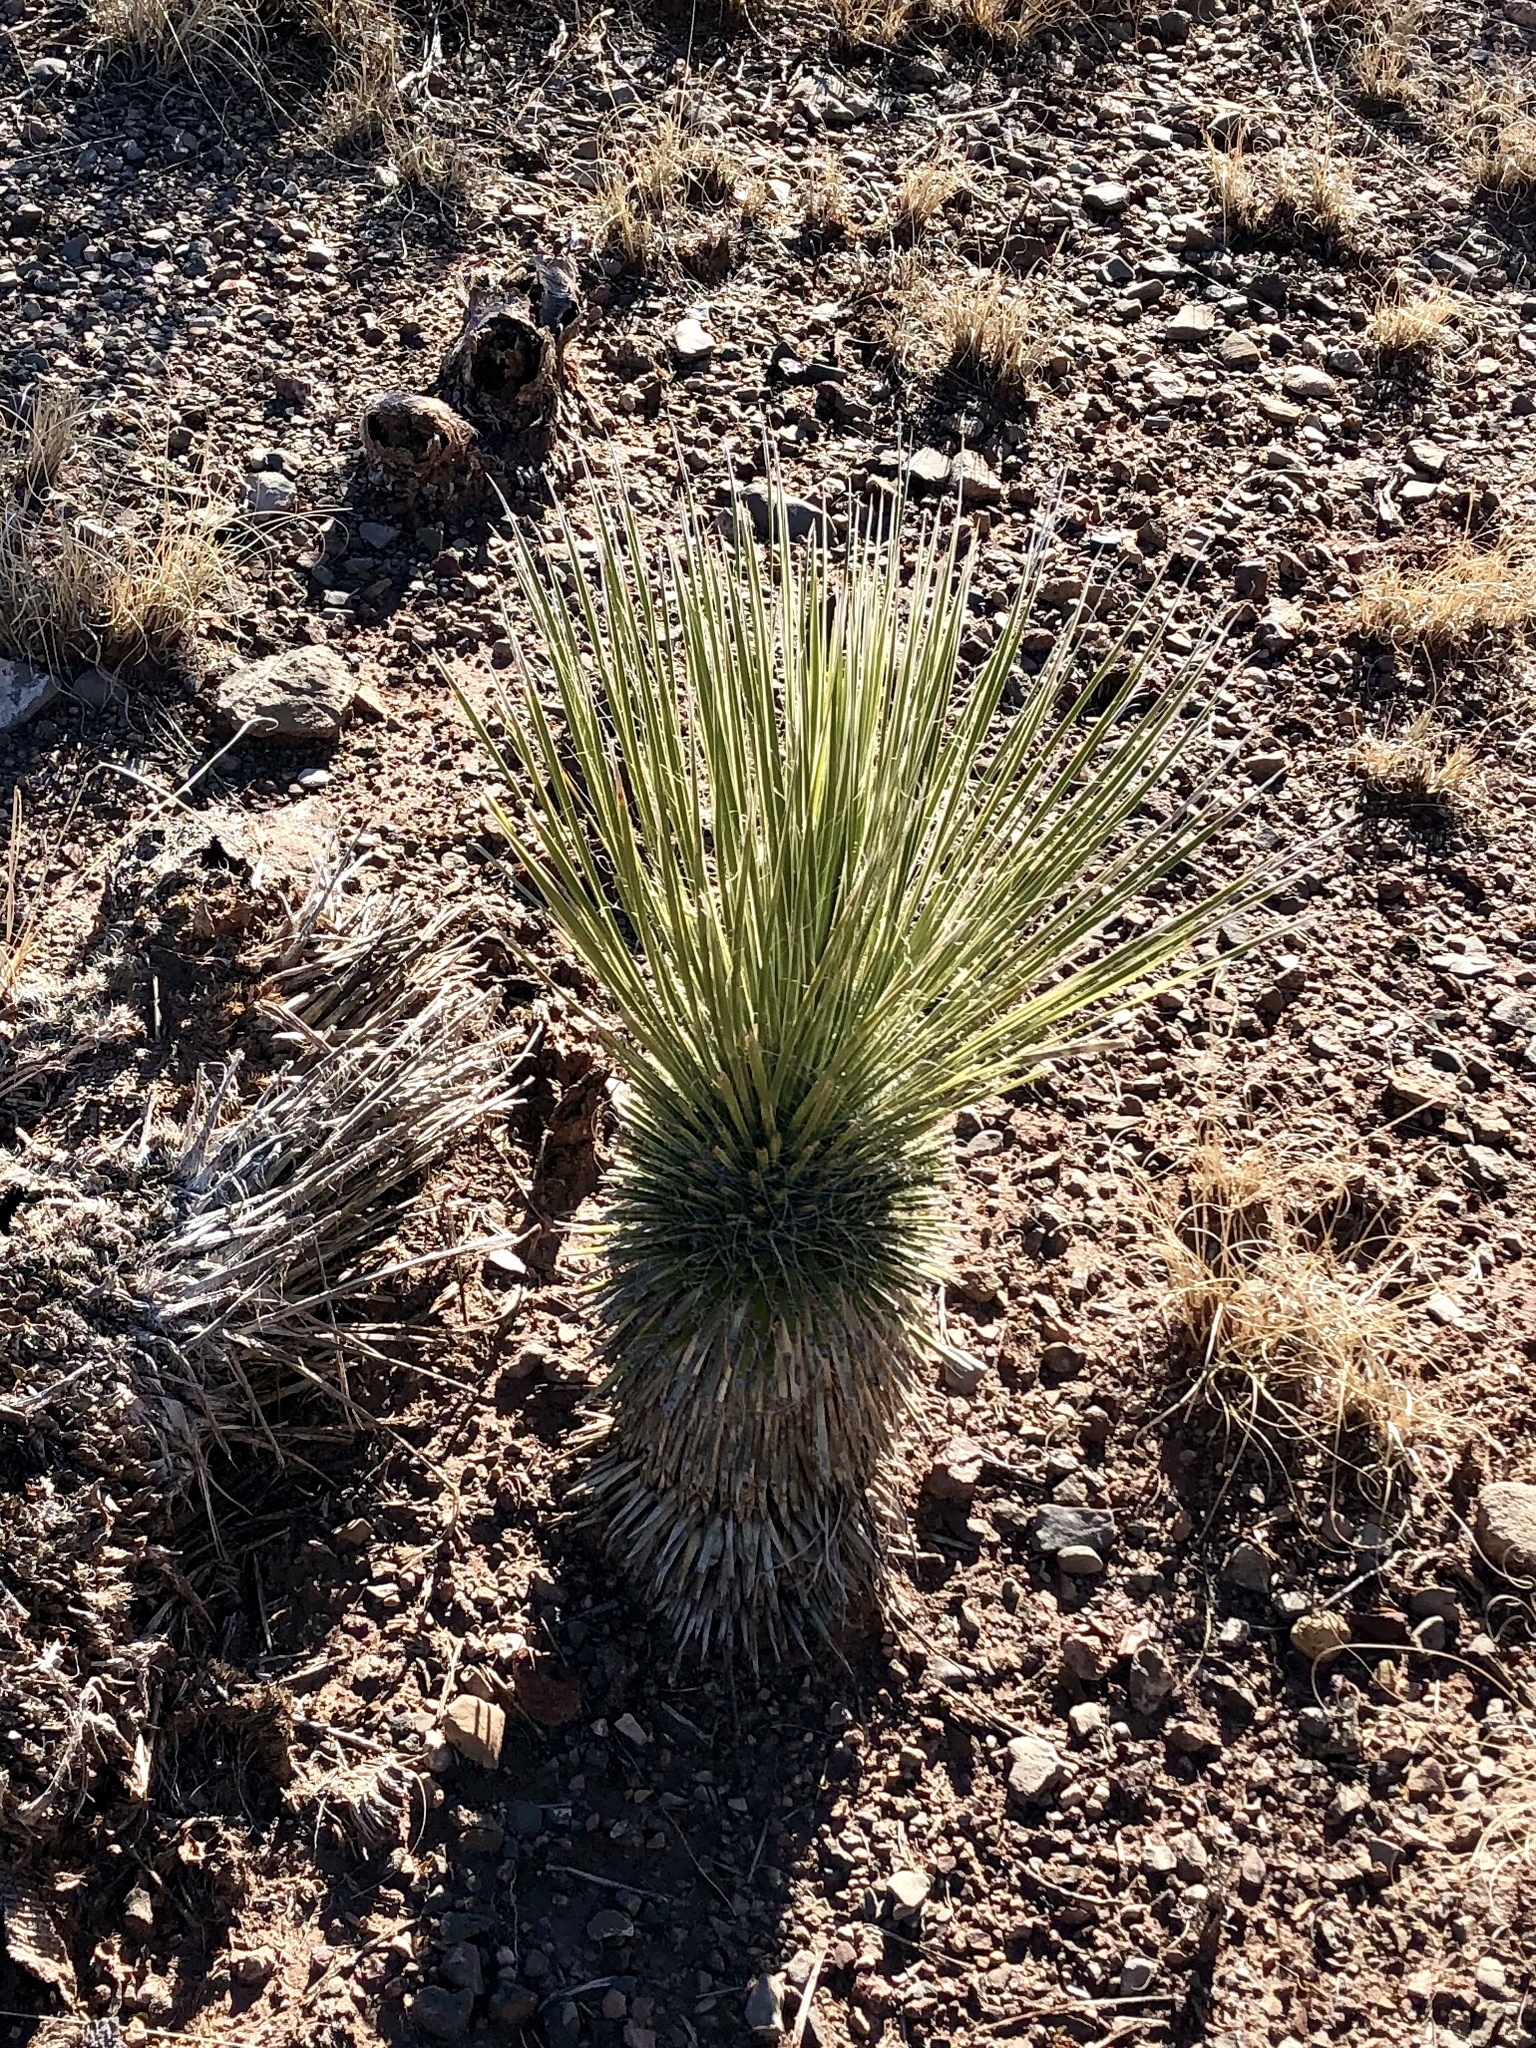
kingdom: Plantae
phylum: Tracheophyta
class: Liliopsida
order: Asparagales
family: Asparagaceae
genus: Yucca
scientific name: Yucca elata
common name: Palmella
